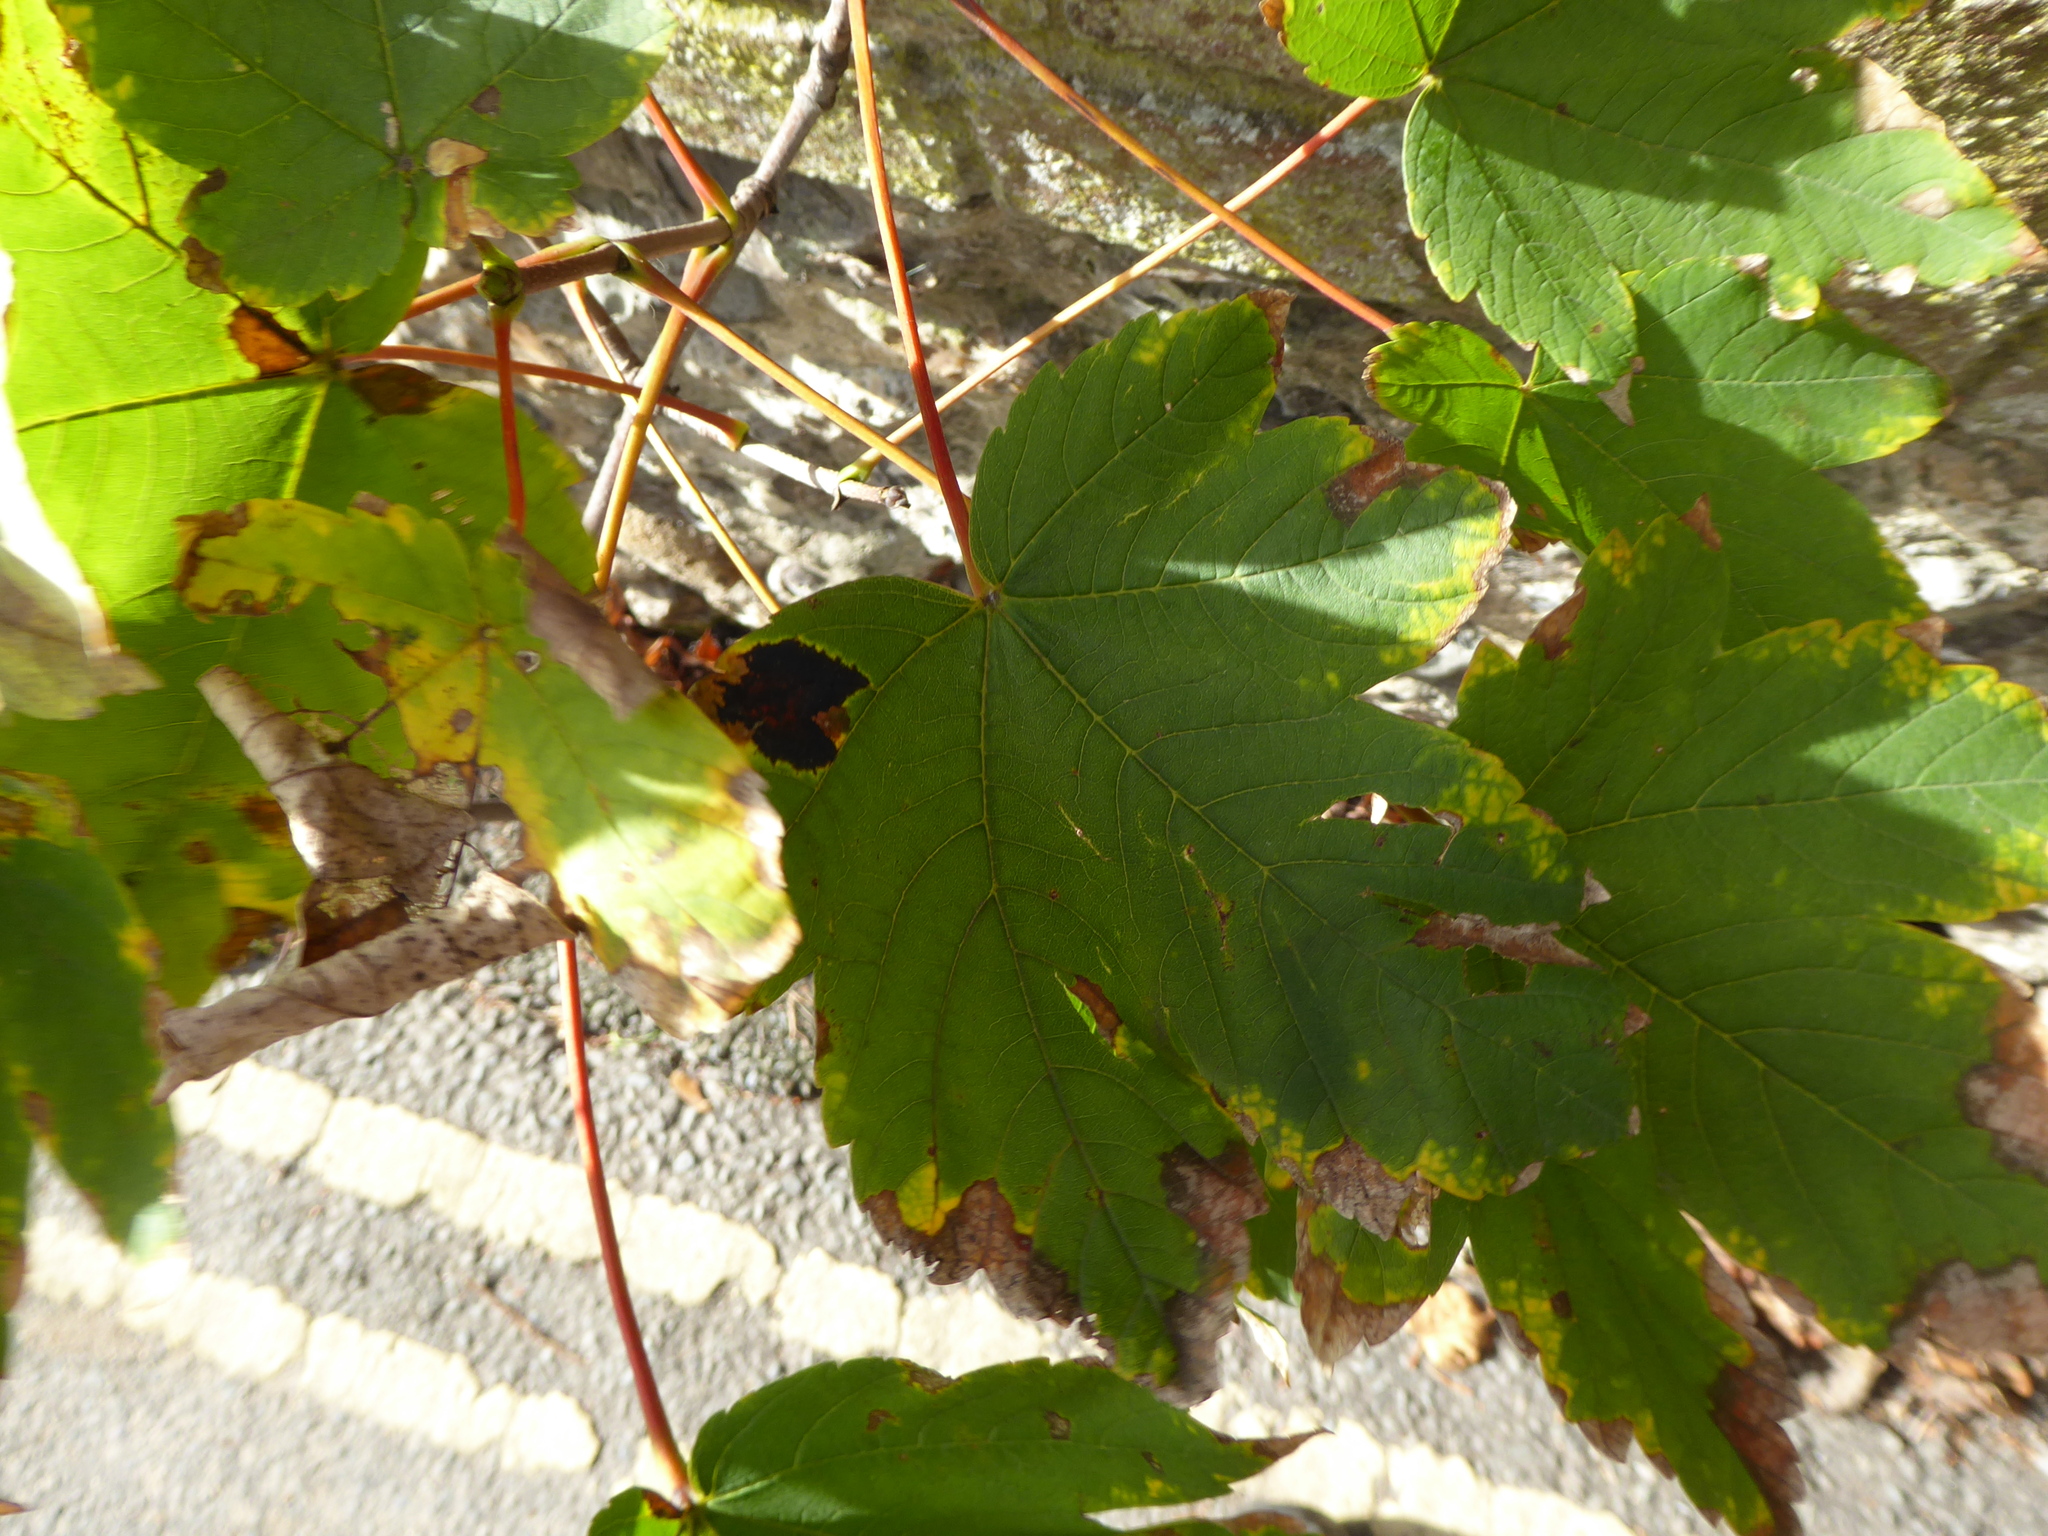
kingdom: Plantae
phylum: Tracheophyta
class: Magnoliopsida
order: Sapindales
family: Sapindaceae
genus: Acer
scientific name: Acer pseudoplatanus
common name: Sycamore
